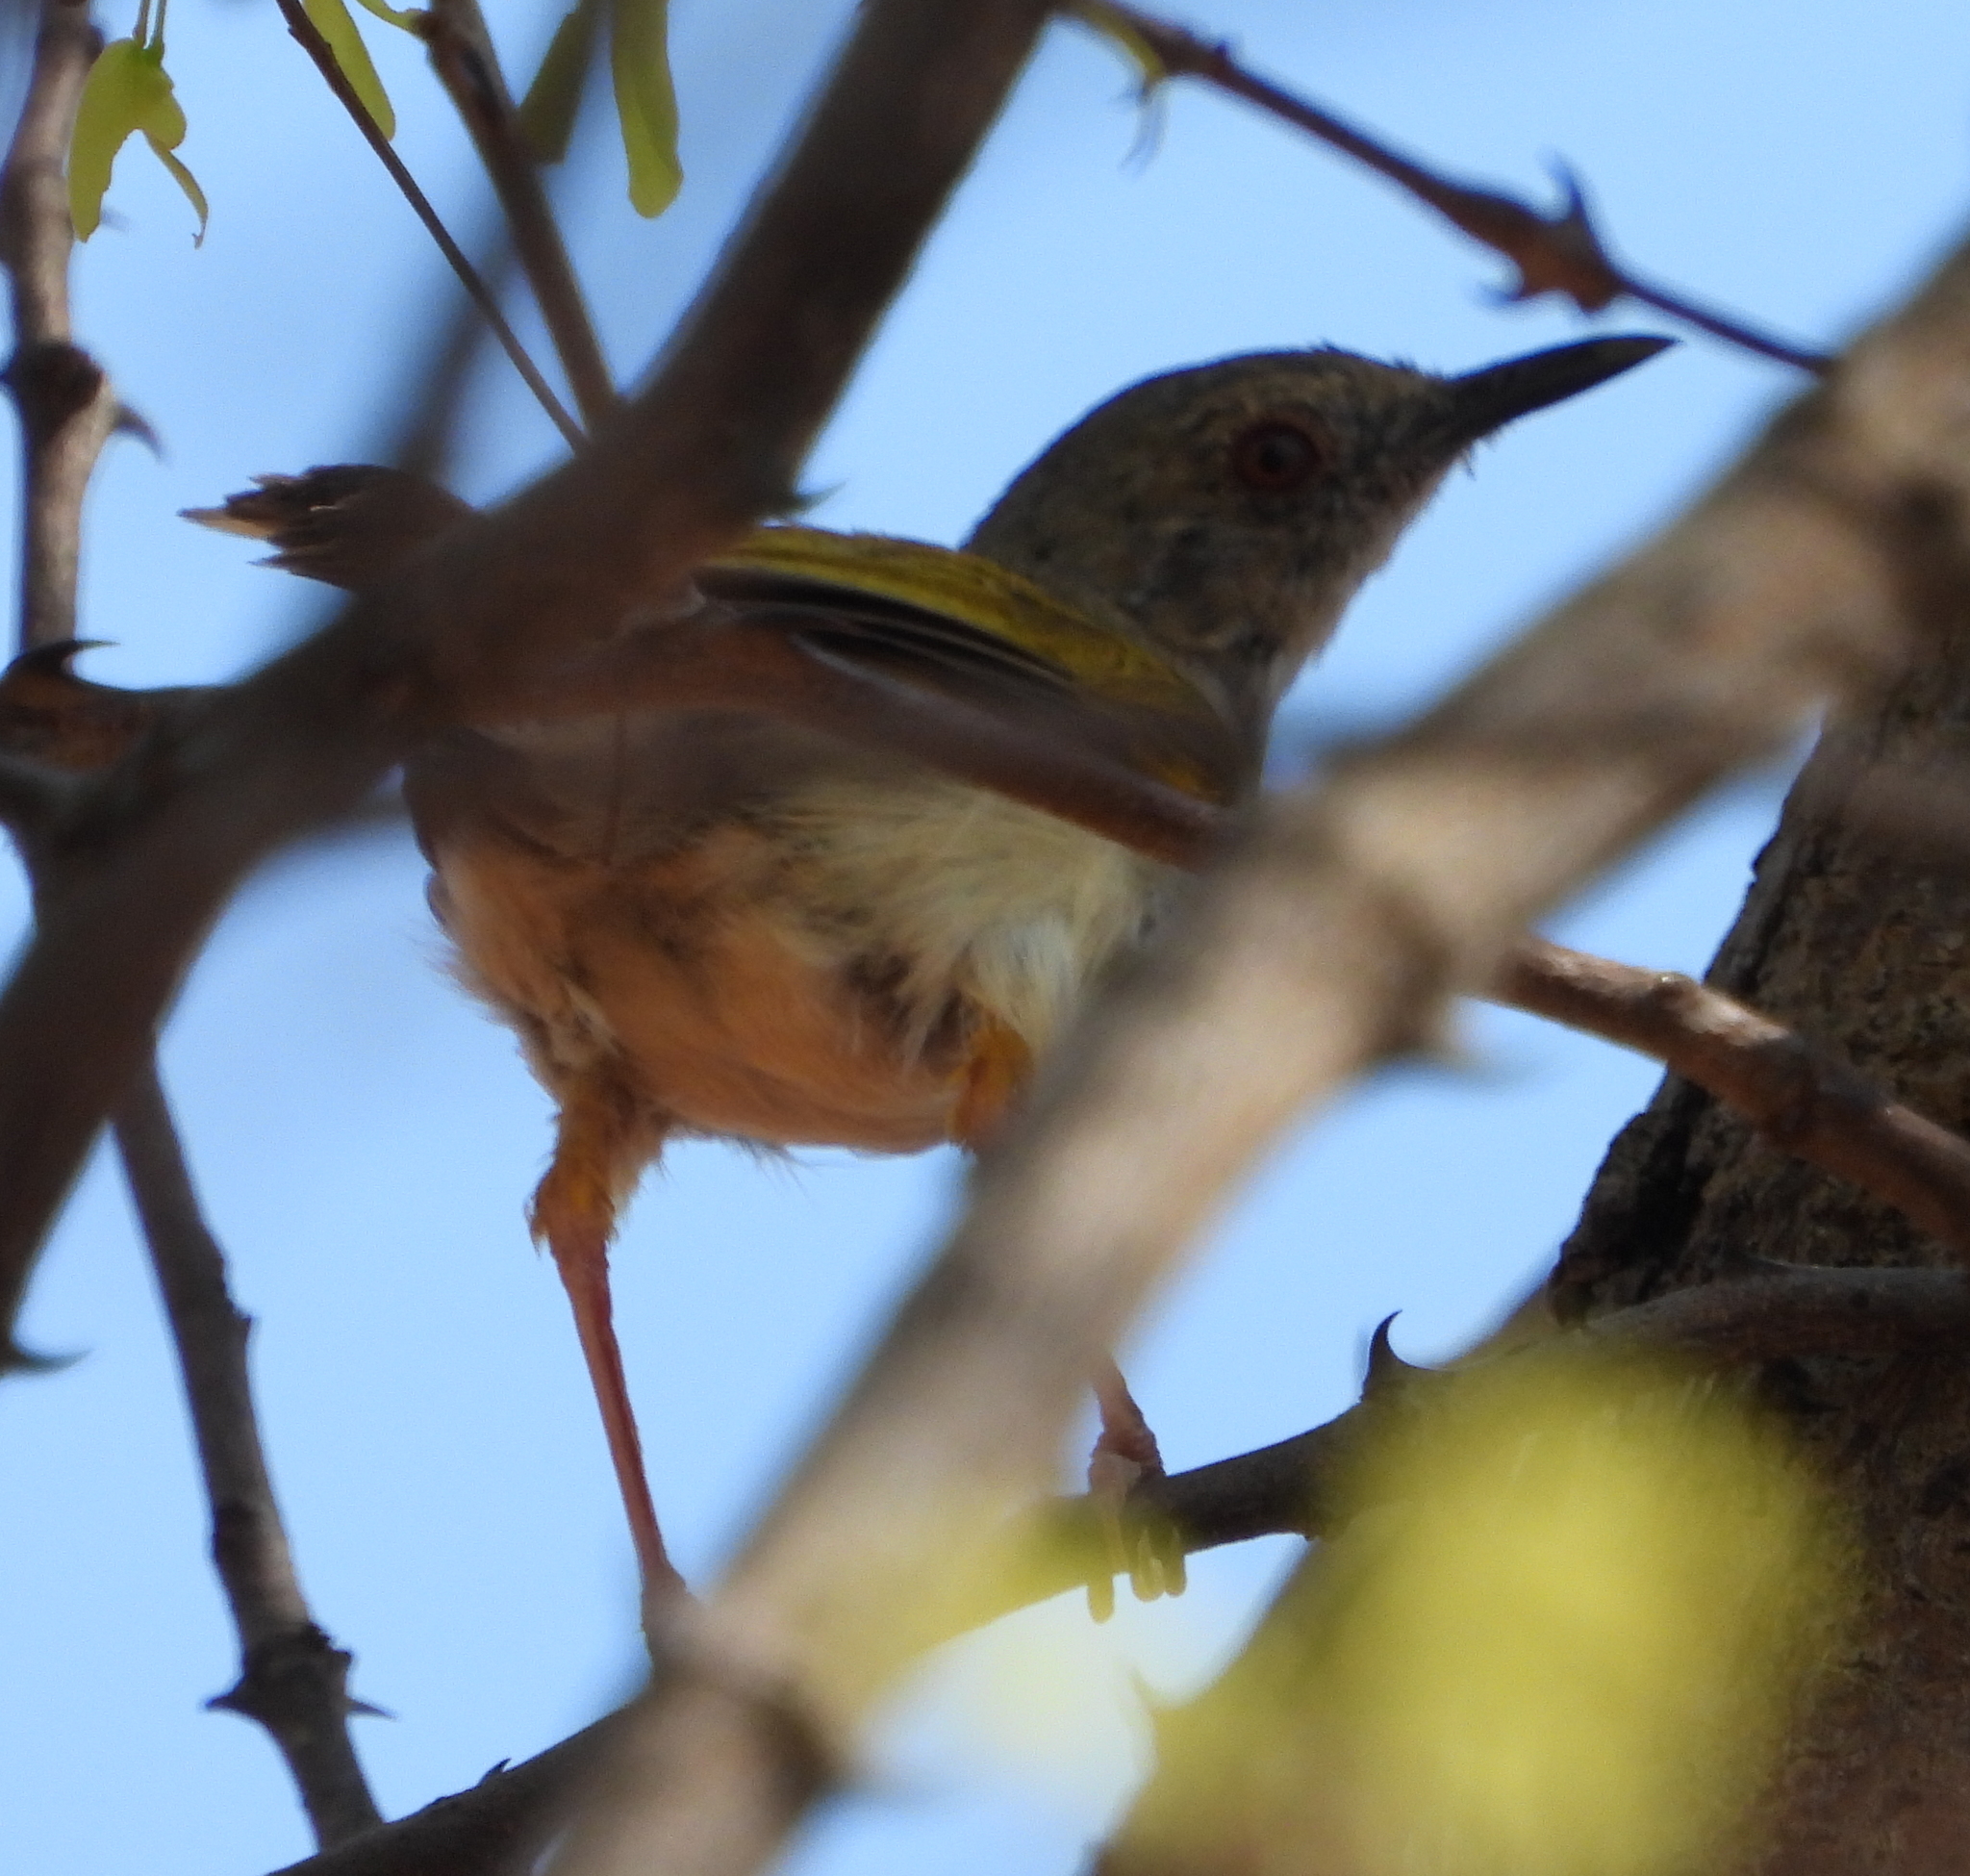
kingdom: Animalia
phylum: Chordata
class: Aves
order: Passeriformes
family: Cisticolidae
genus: Camaroptera
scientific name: Camaroptera brachyura
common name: Green-backed camaroptera
